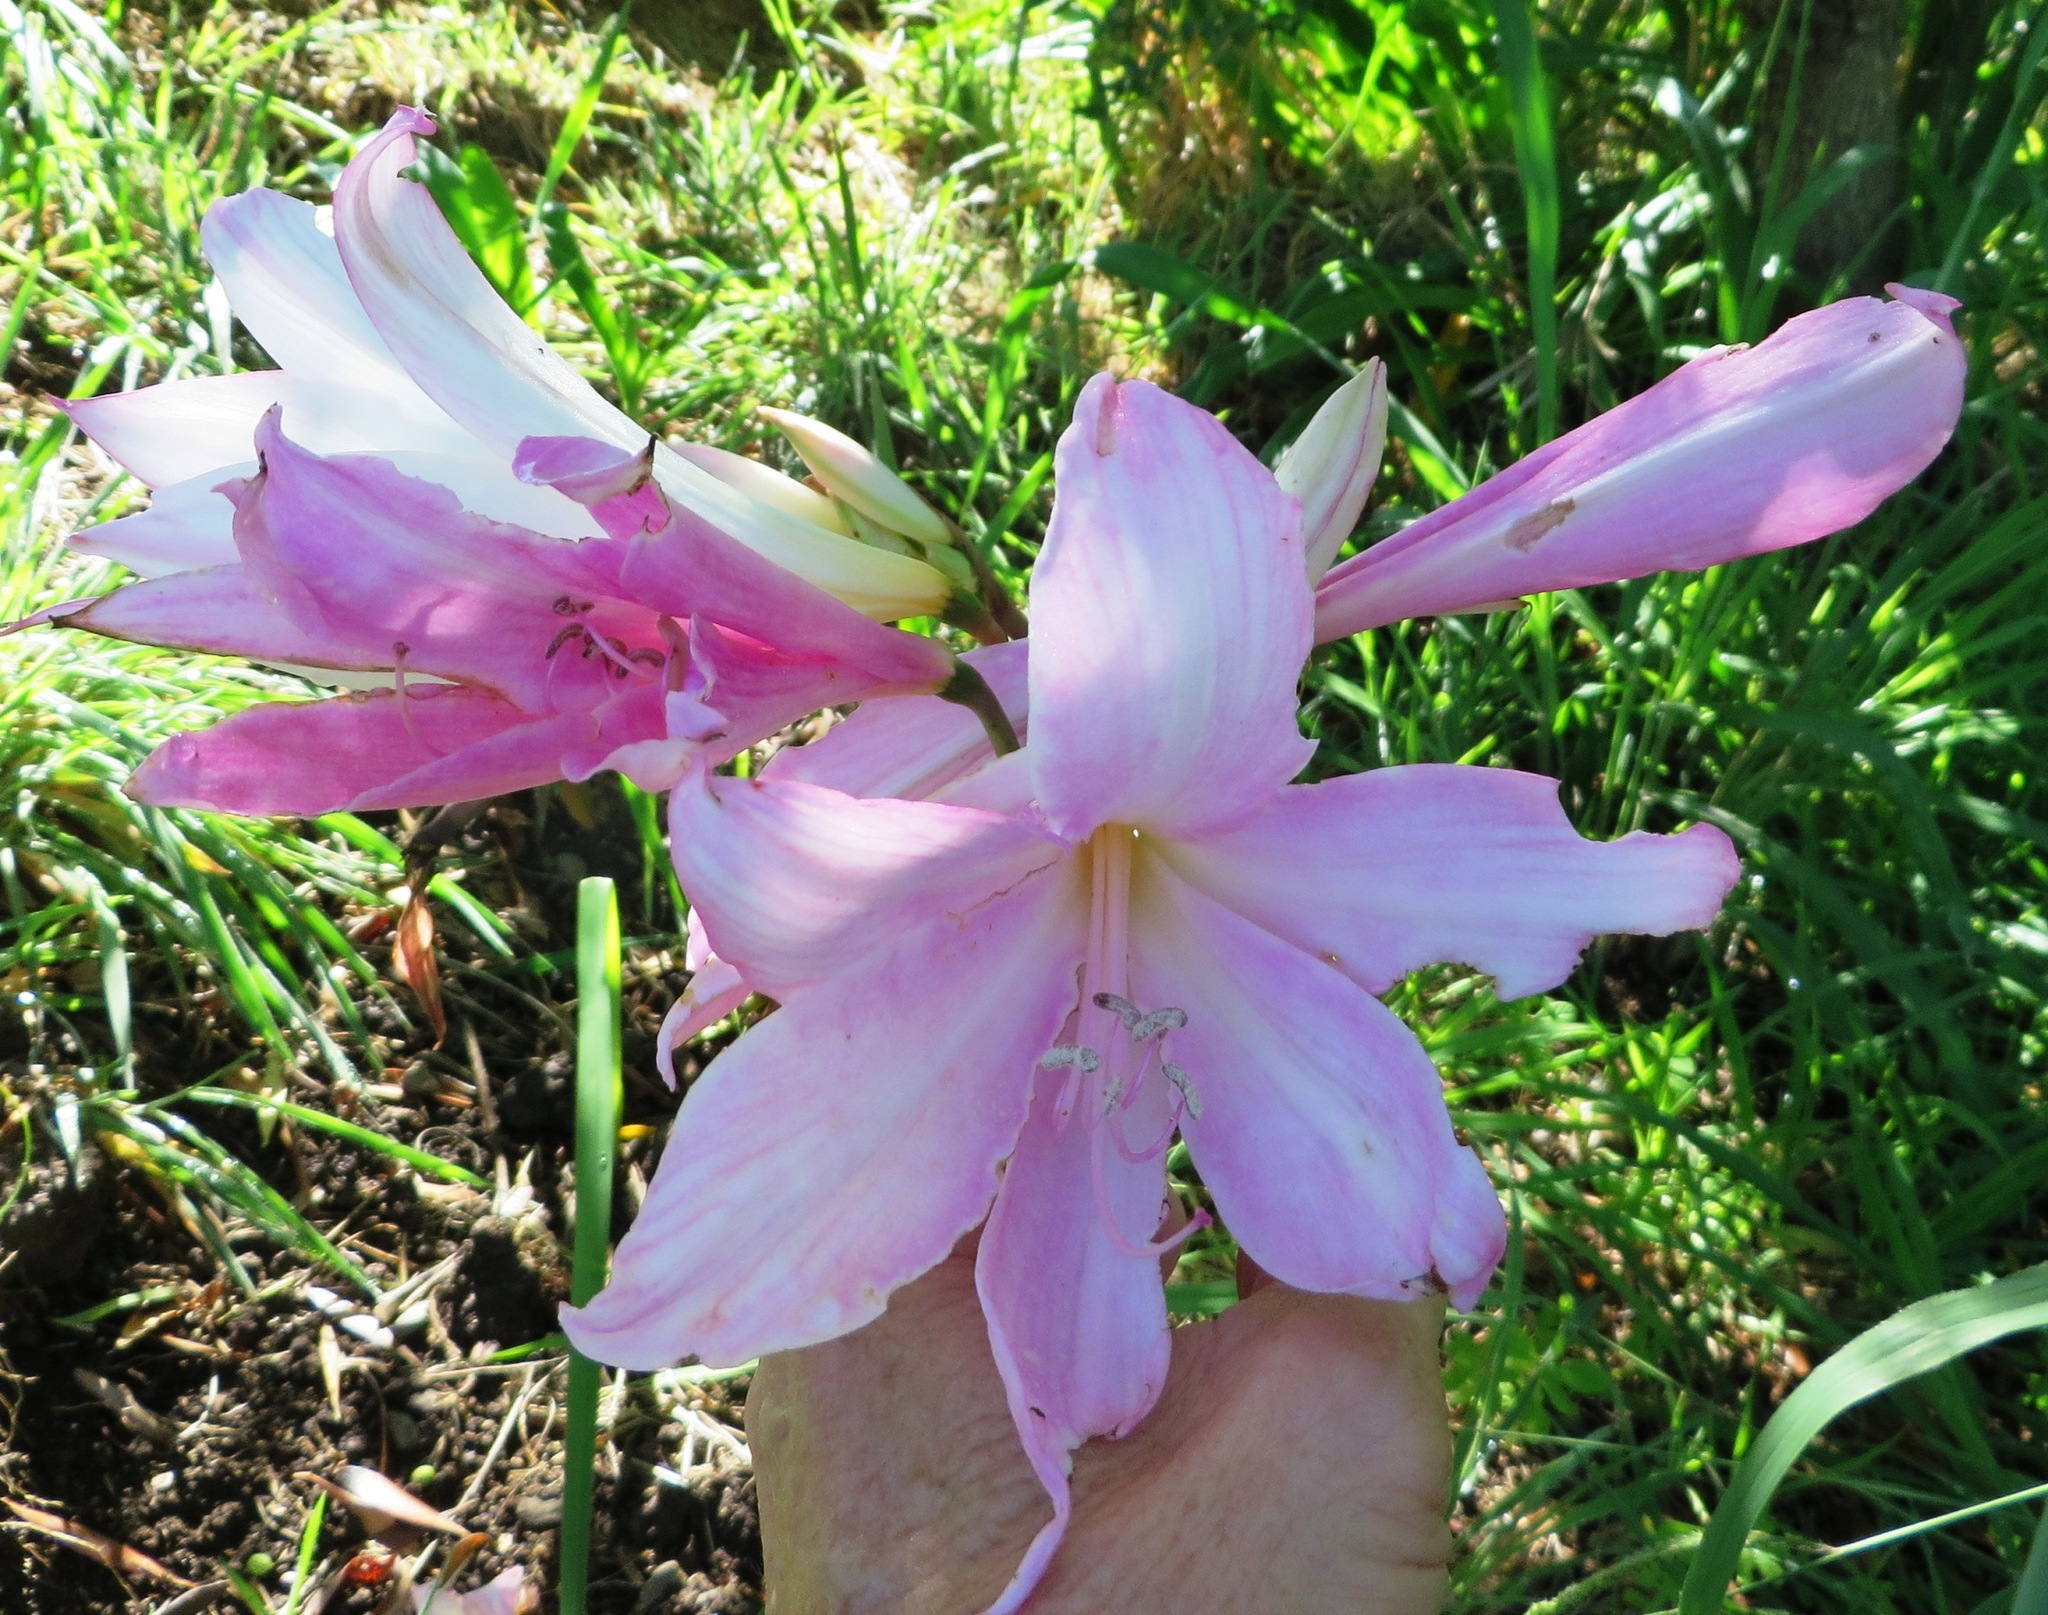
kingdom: Plantae
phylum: Tracheophyta
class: Liliopsida
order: Asparagales
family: Amaryllidaceae
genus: Amaryllis
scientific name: Amaryllis belladonna
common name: Jersey lily
